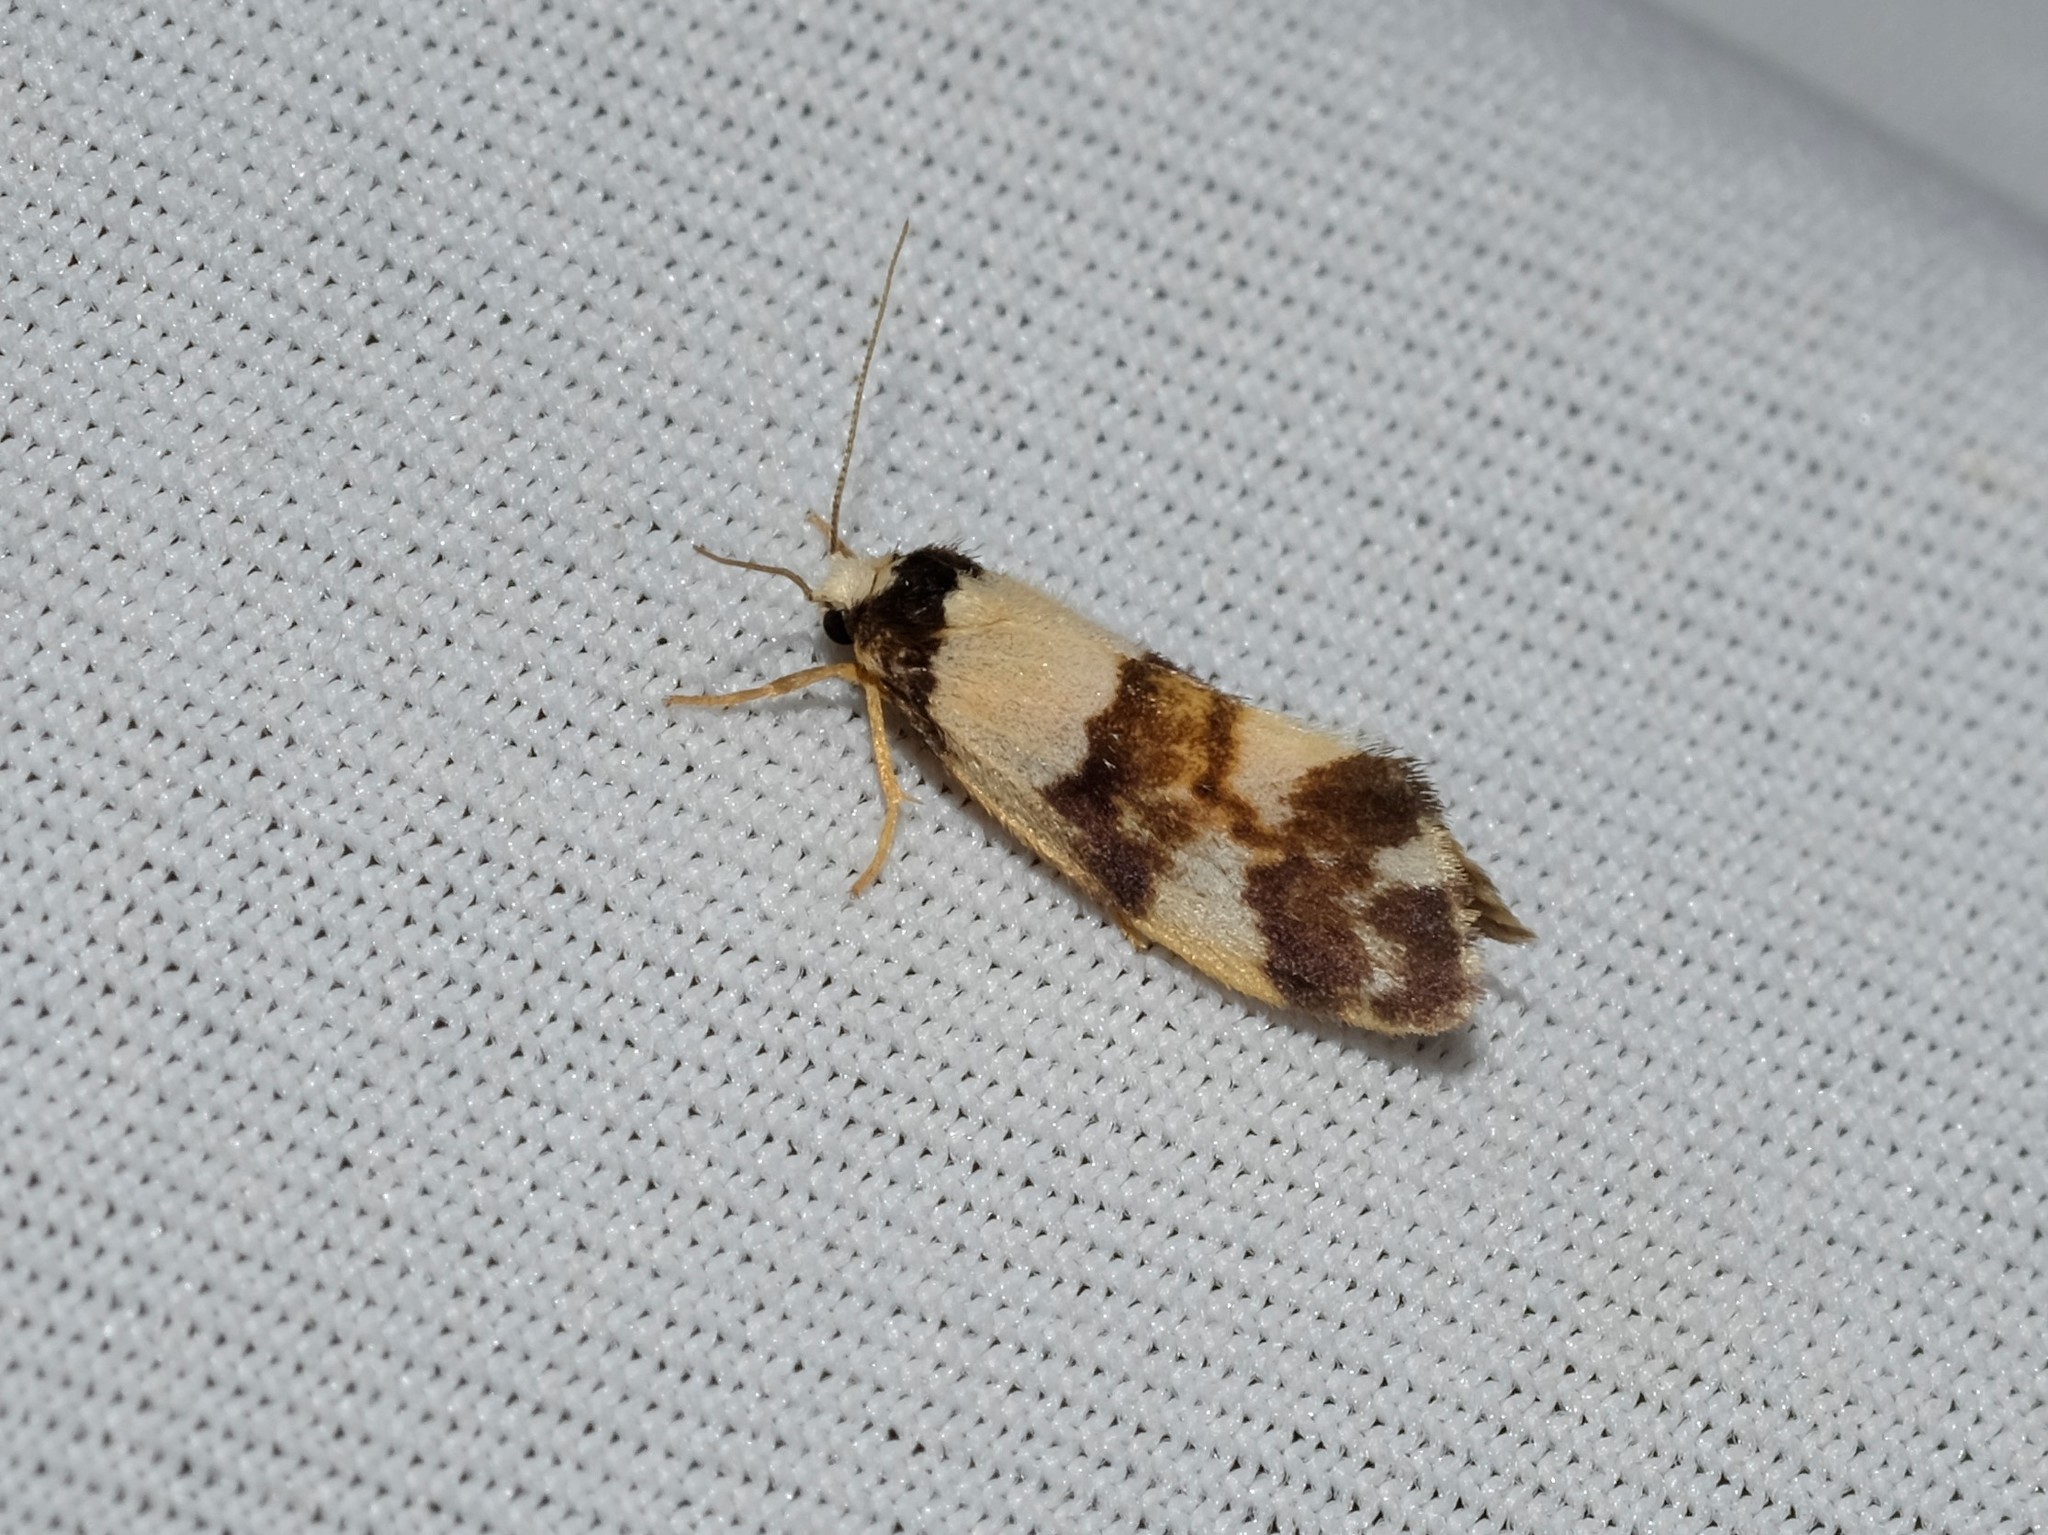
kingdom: Animalia
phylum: Arthropoda
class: Insecta
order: Lepidoptera
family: Erebidae
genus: Philenora
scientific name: Philenora aspectalella
